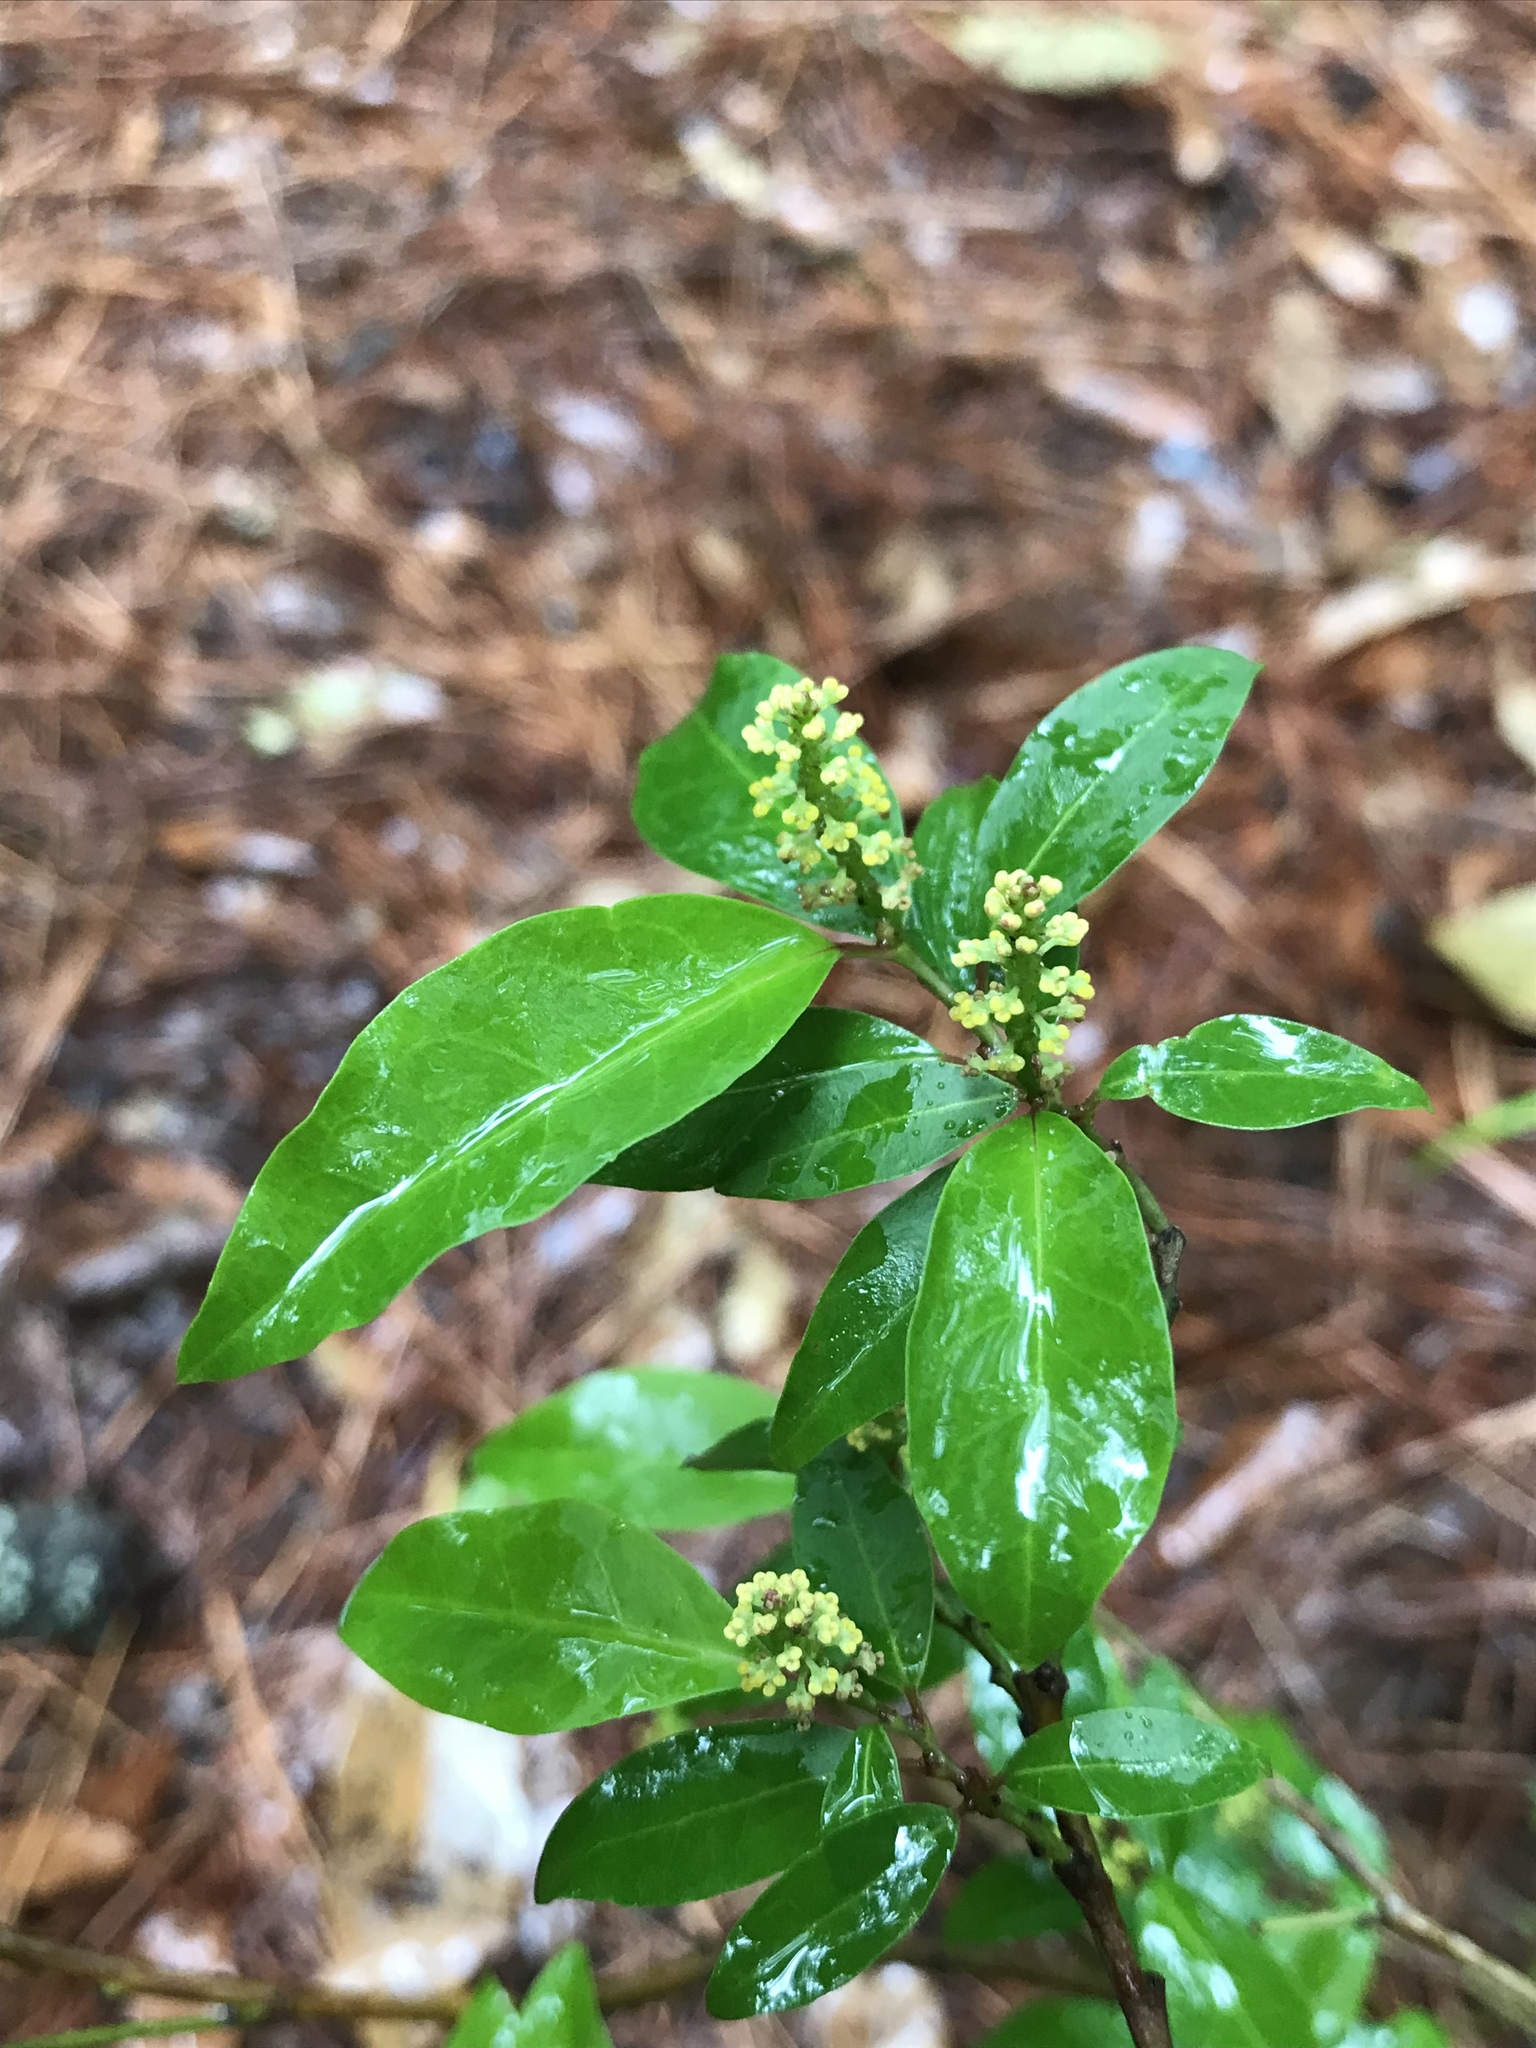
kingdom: Plantae
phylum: Tracheophyta
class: Magnoliopsida
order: Malpighiales
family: Euphorbiaceae
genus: Ditrysinia
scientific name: Ditrysinia fruticosa
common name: Gulf sebastian-bush
